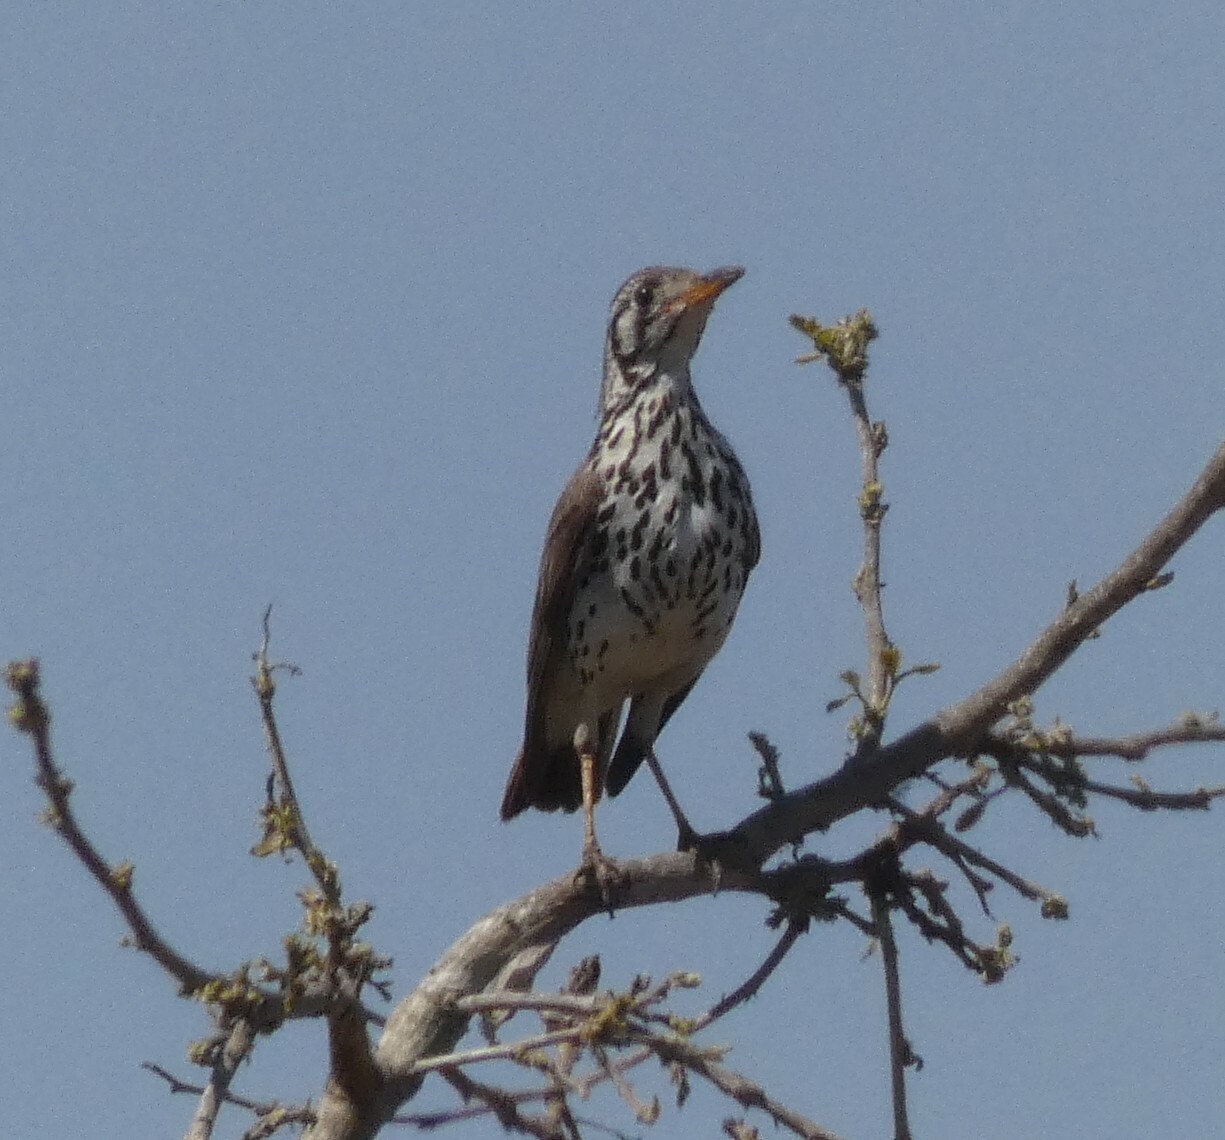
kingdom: Animalia
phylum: Chordata
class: Aves
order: Passeriformes
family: Turdidae
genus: Psophocichla
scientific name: Psophocichla litsitsirupa
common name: Groundscraper thrush
